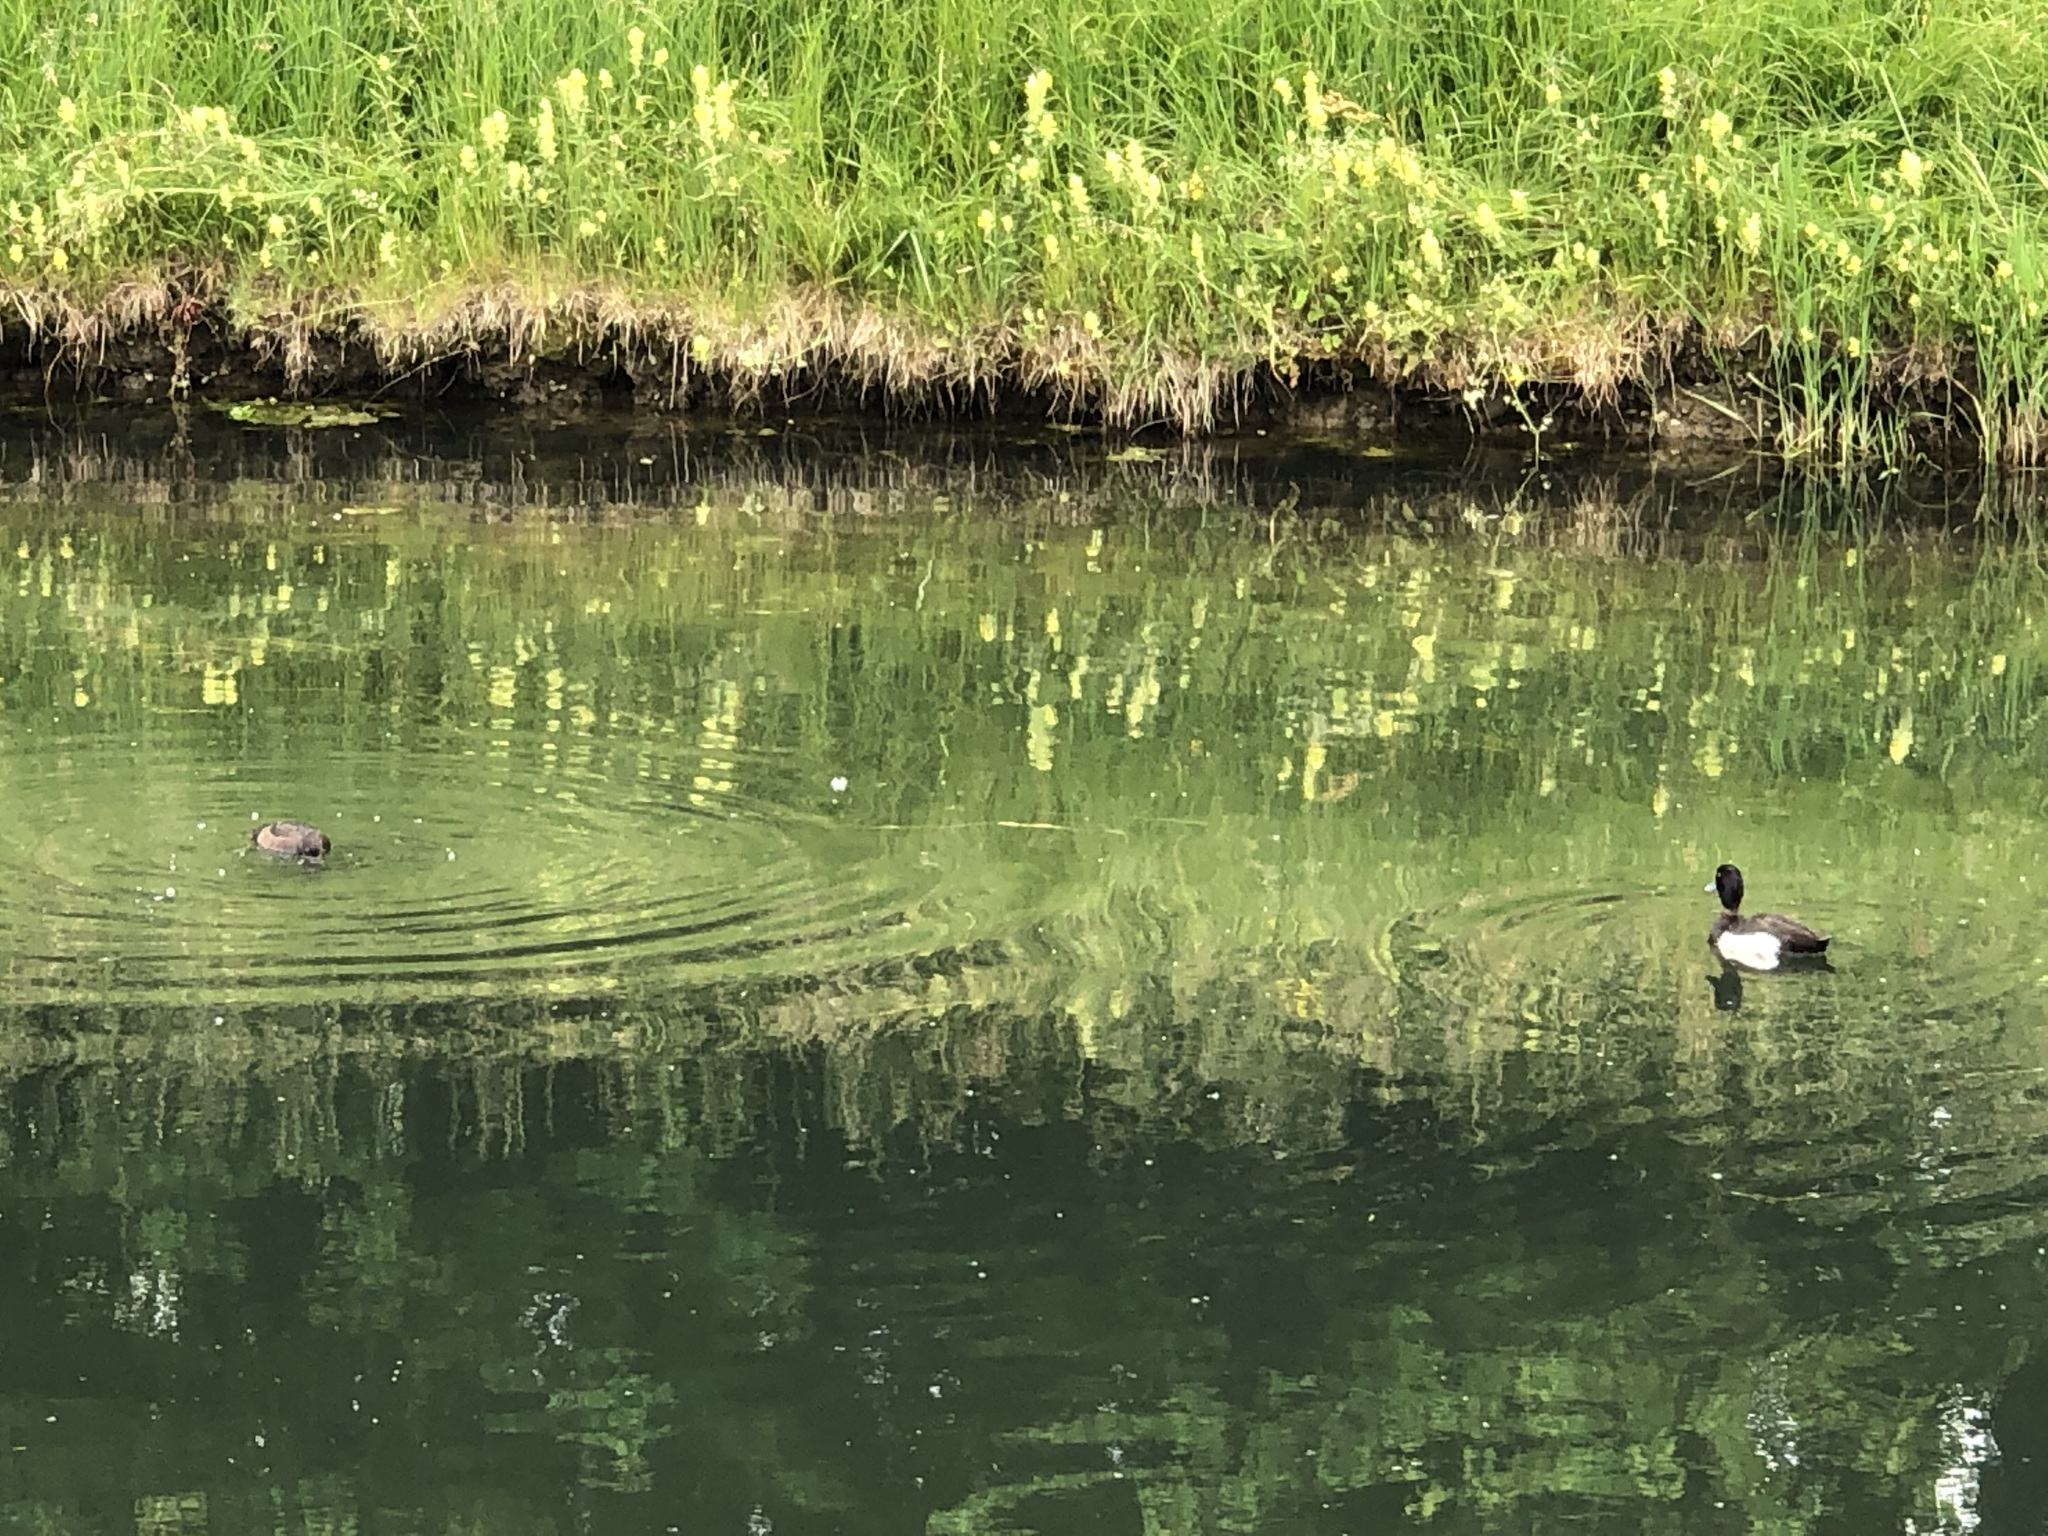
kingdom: Animalia
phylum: Chordata
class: Aves
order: Anseriformes
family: Anatidae
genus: Aythya
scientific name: Aythya fuligula
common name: Tufted duck
